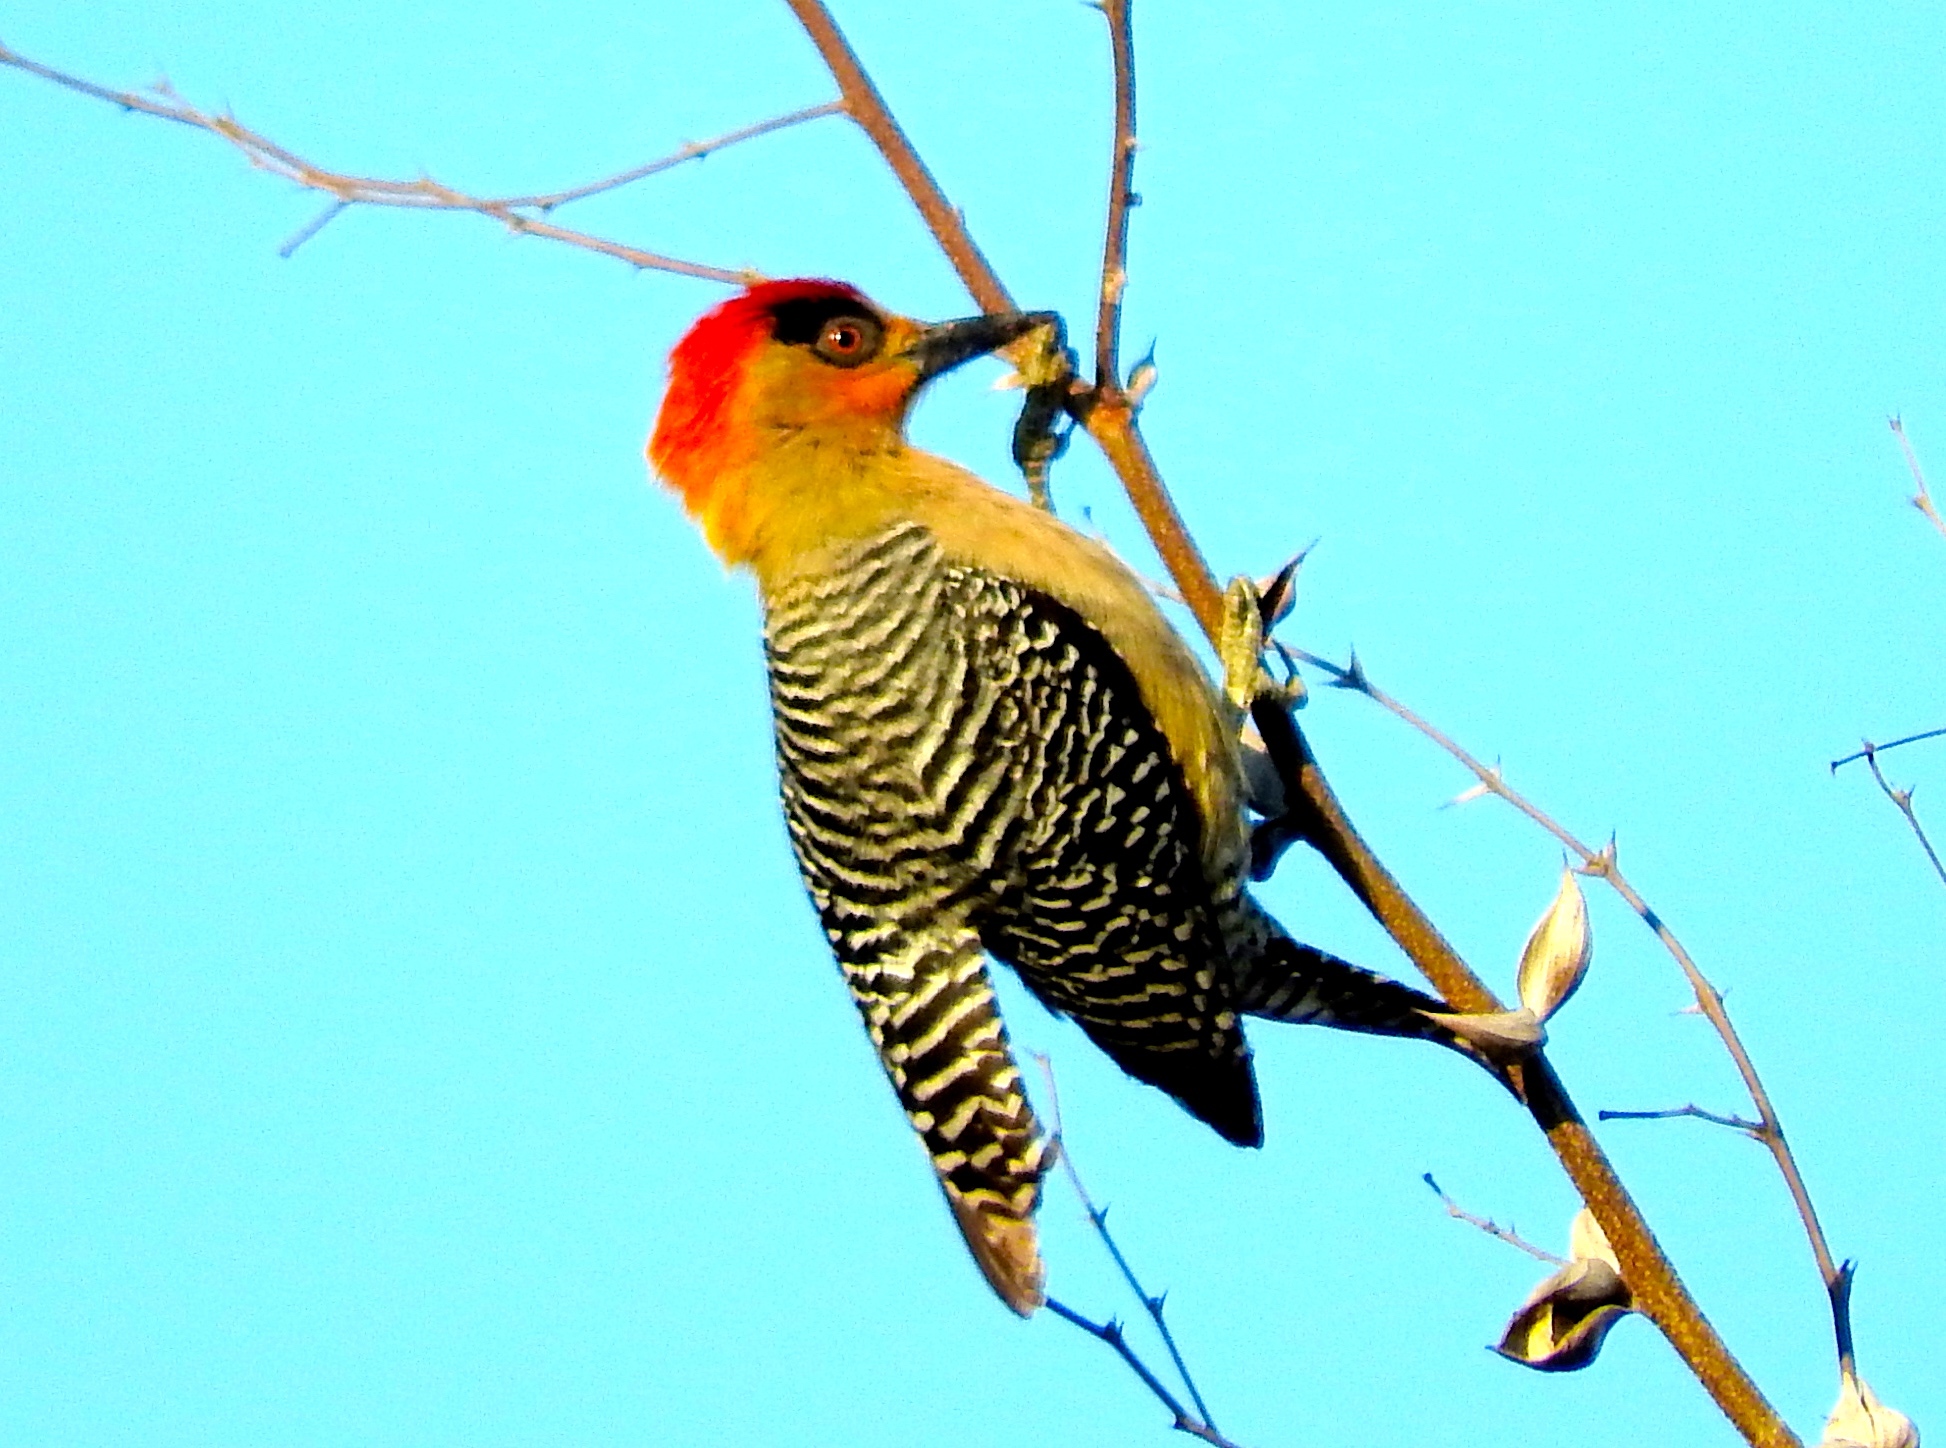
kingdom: Animalia
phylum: Chordata
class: Aves
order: Piciformes
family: Picidae
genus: Melanerpes
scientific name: Melanerpes chrysogenys
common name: Golden-cheeked woodpecker
